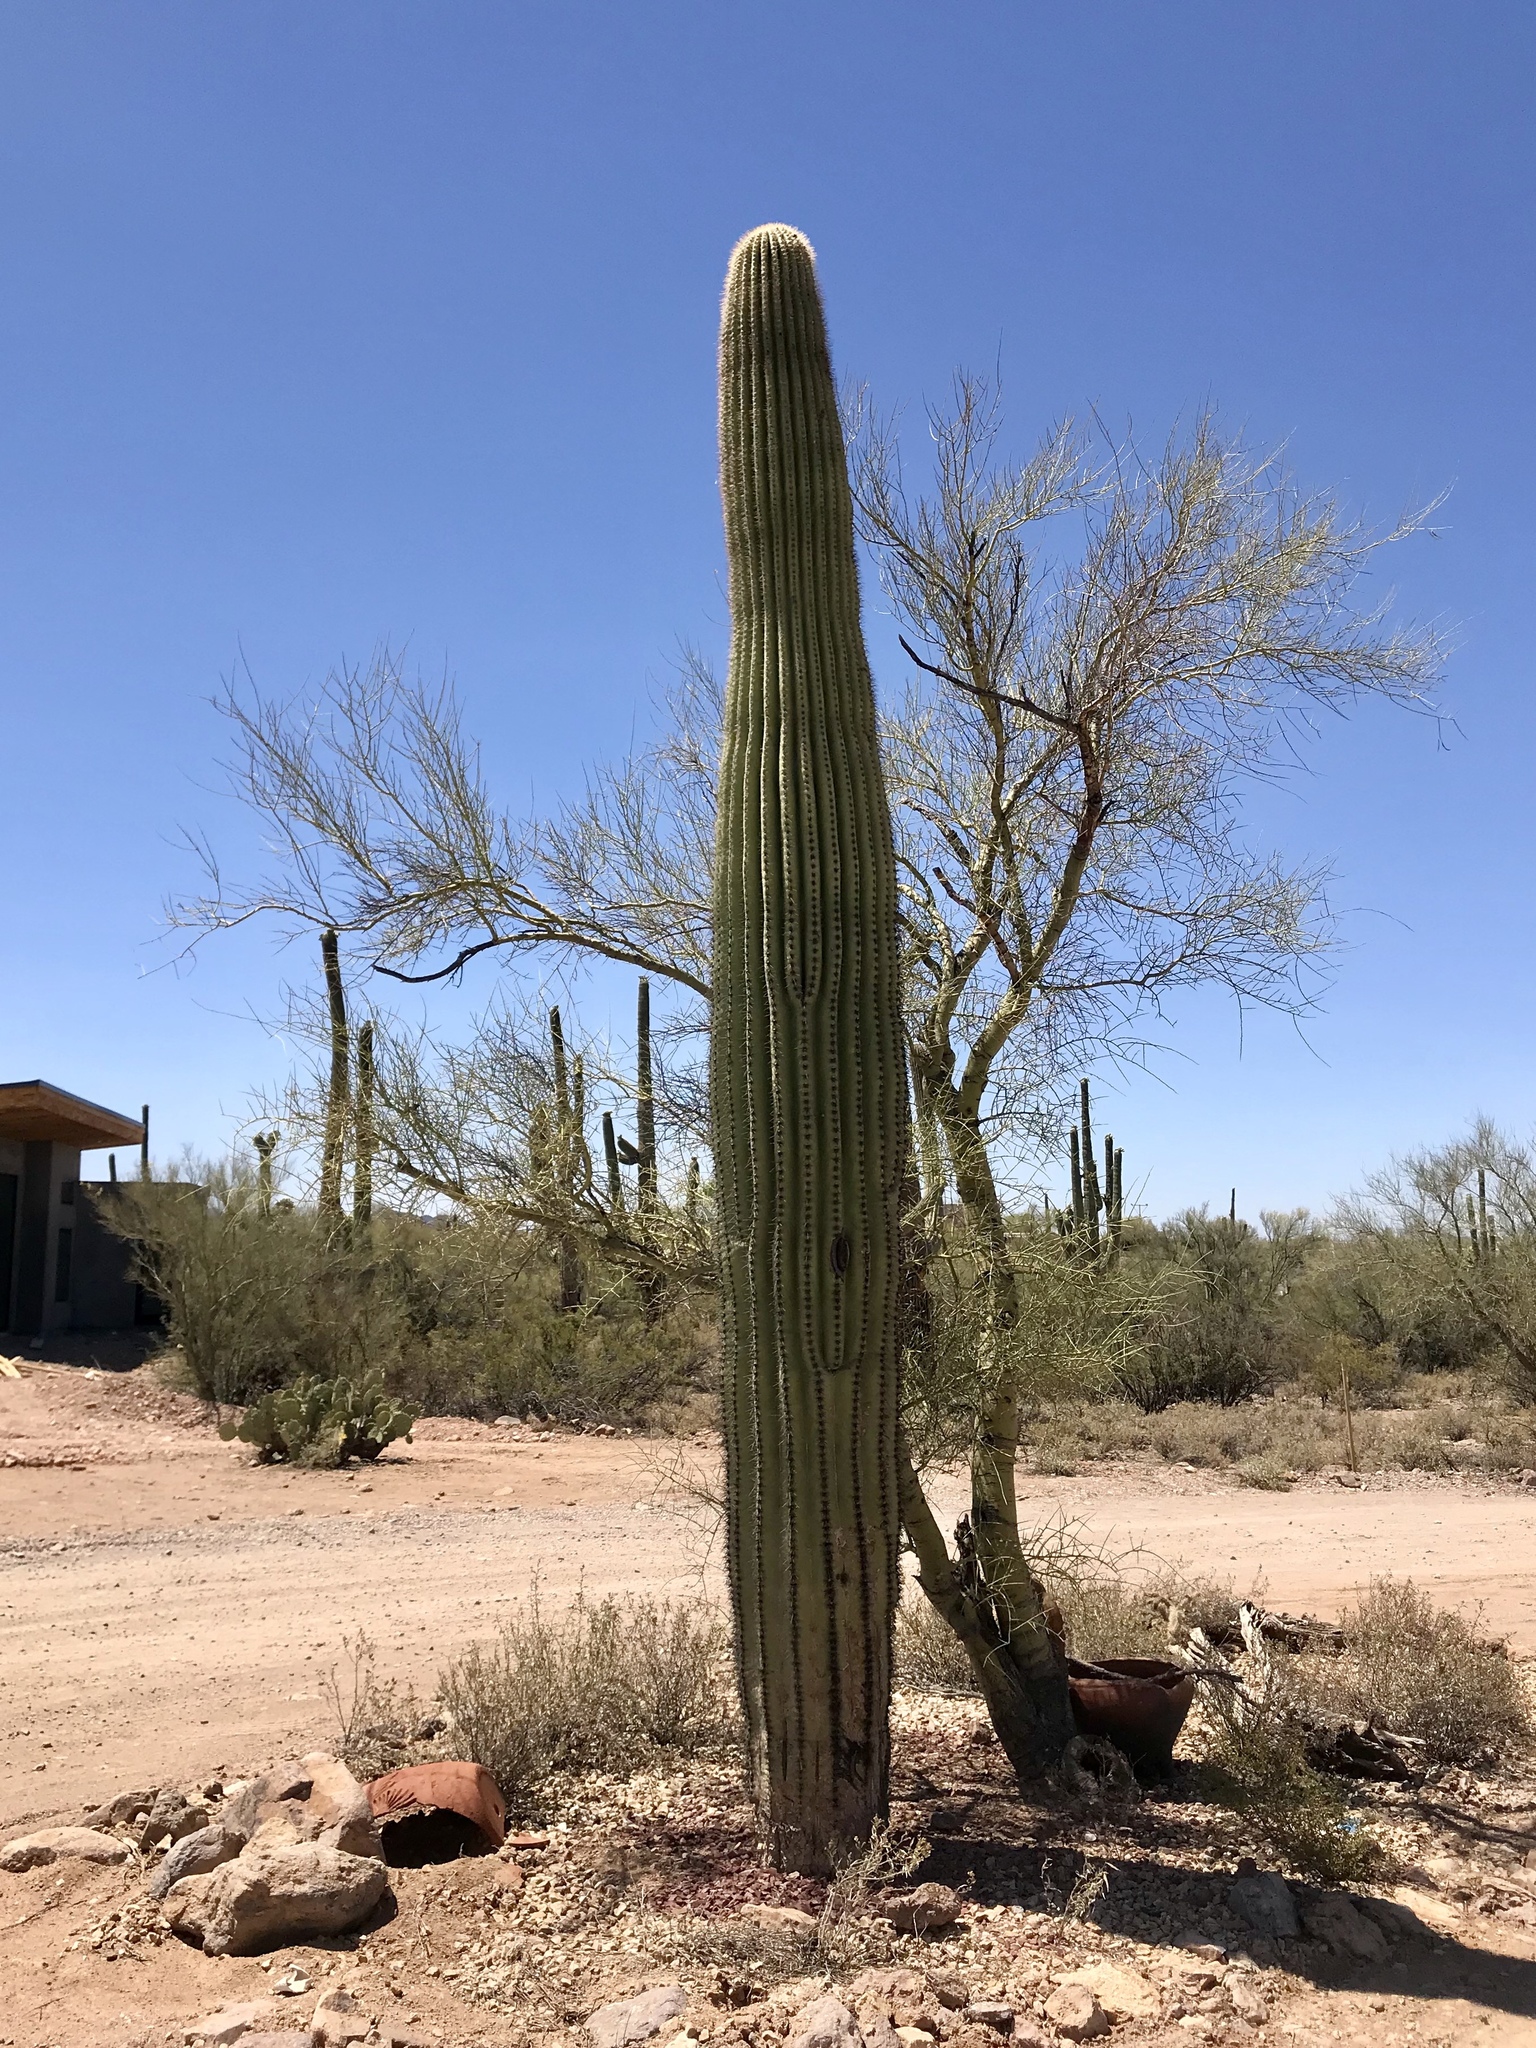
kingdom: Plantae
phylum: Tracheophyta
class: Magnoliopsida
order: Caryophyllales
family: Cactaceae
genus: Carnegiea
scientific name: Carnegiea gigantea
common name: Saguaro
